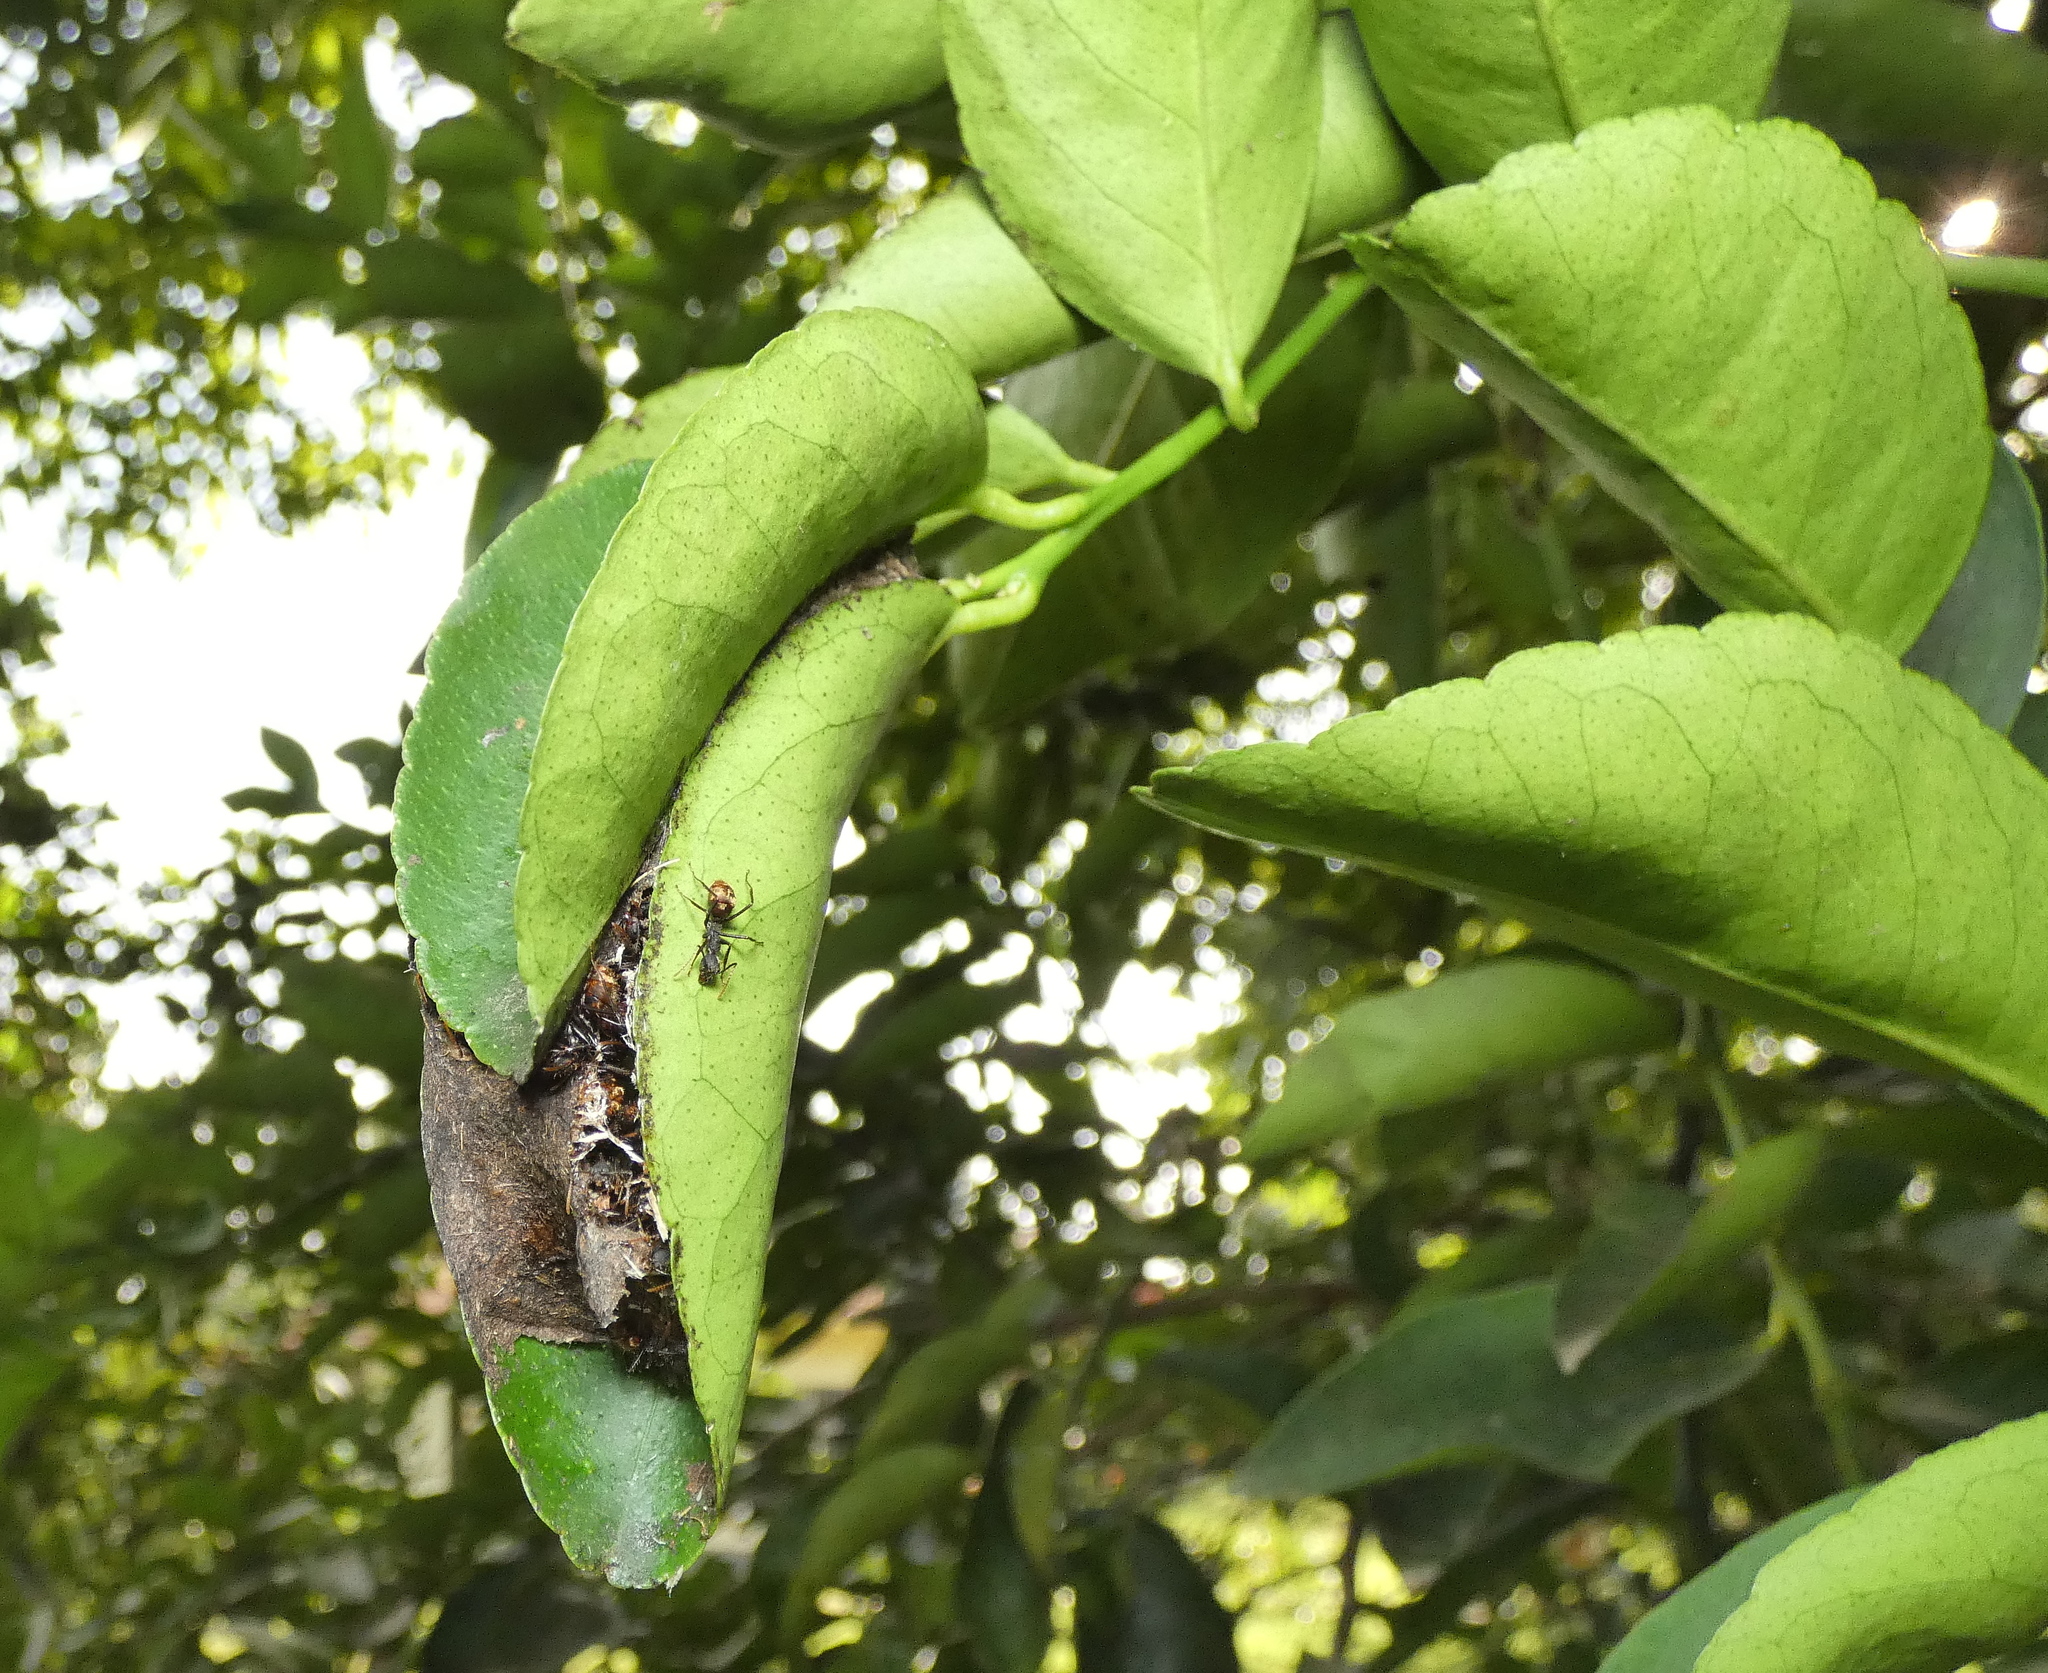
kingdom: Animalia
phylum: Arthropoda
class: Insecta
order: Hymenoptera
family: Formicidae
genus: Dolichoderus
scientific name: Dolichoderus bidens
